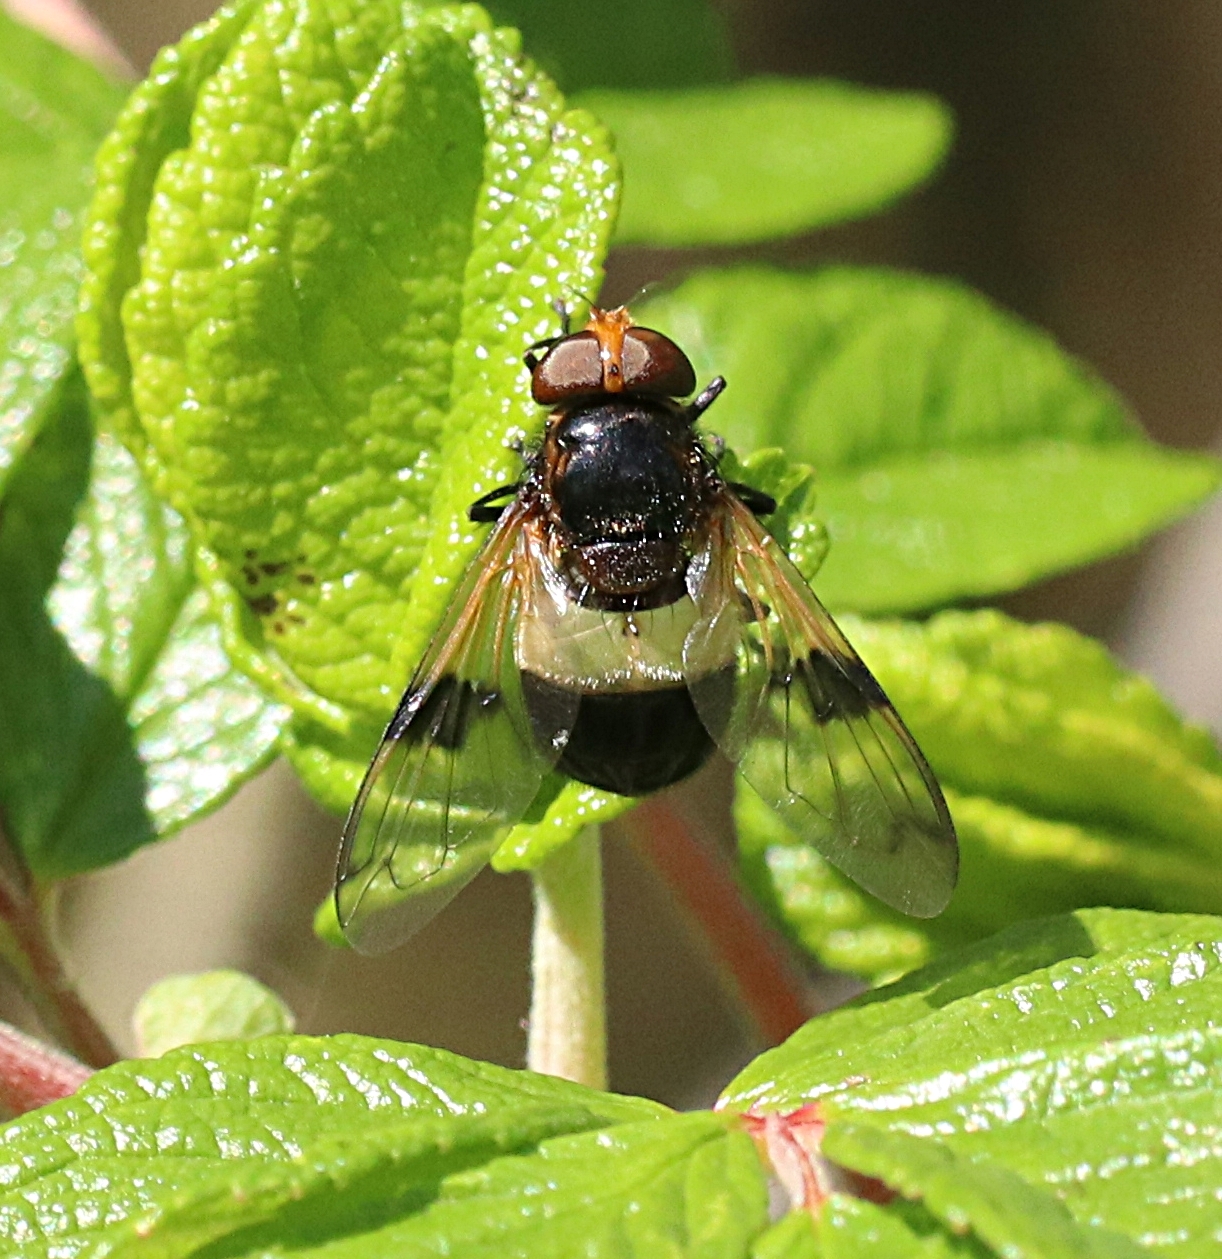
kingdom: Animalia
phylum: Arthropoda
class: Insecta
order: Diptera
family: Syrphidae
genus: Volucella
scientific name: Volucella pellucens
